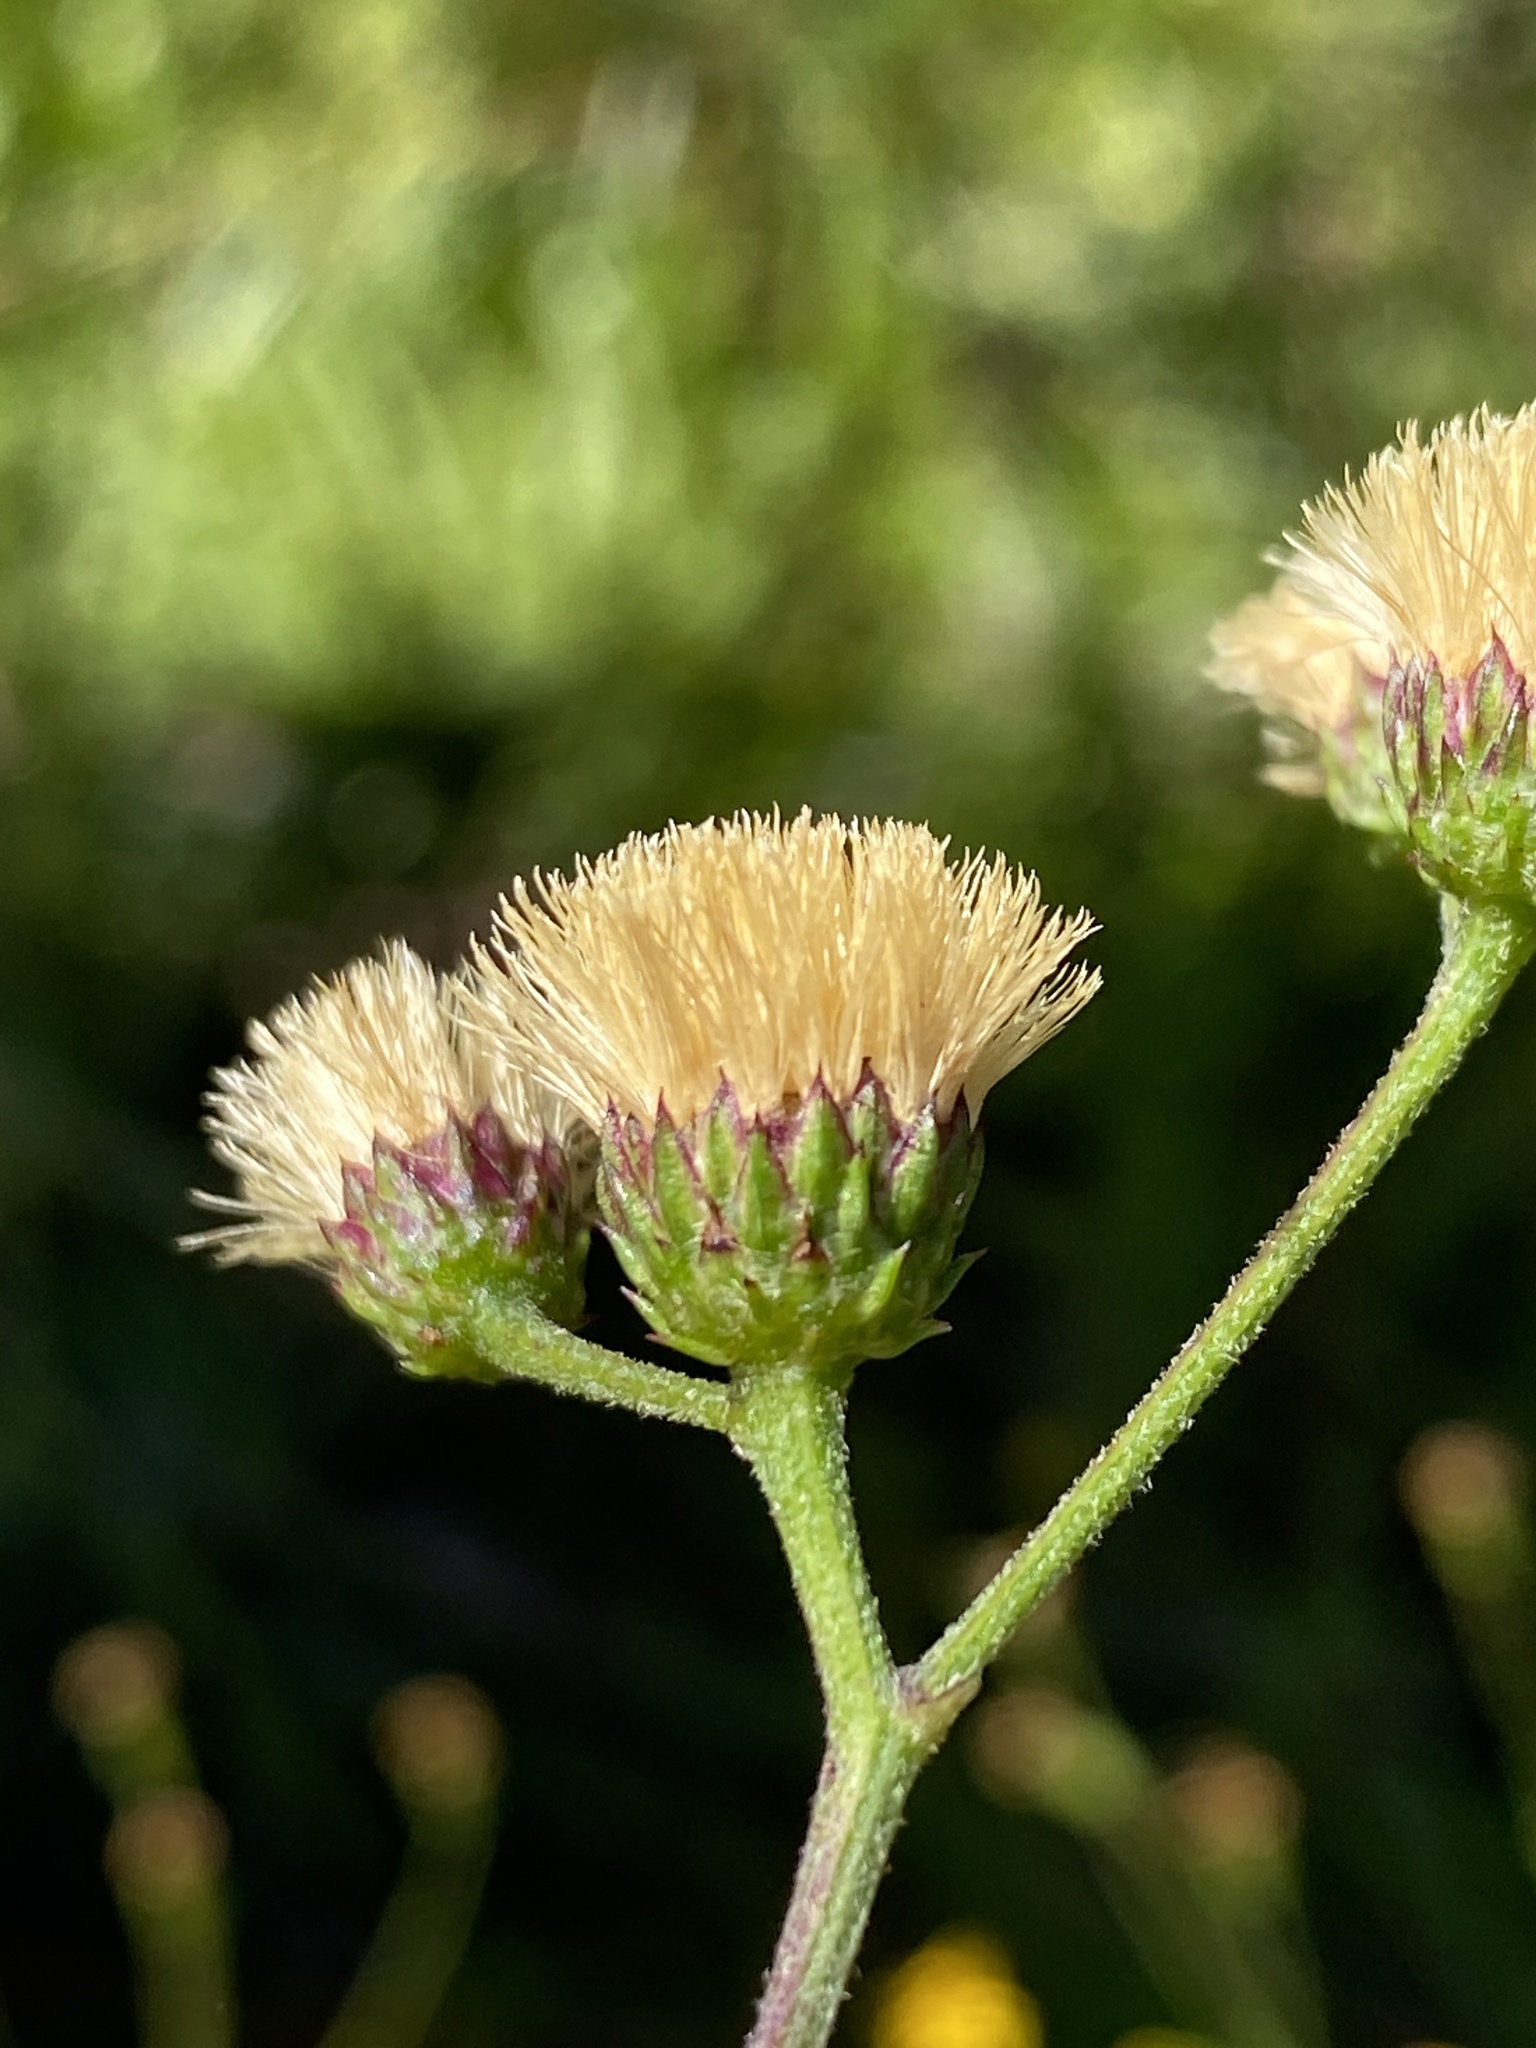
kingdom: Plantae
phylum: Tracheophyta
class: Magnoliopsida
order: Asterales
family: Asteraceae
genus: Vernonia
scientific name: Vernonia acaulis
